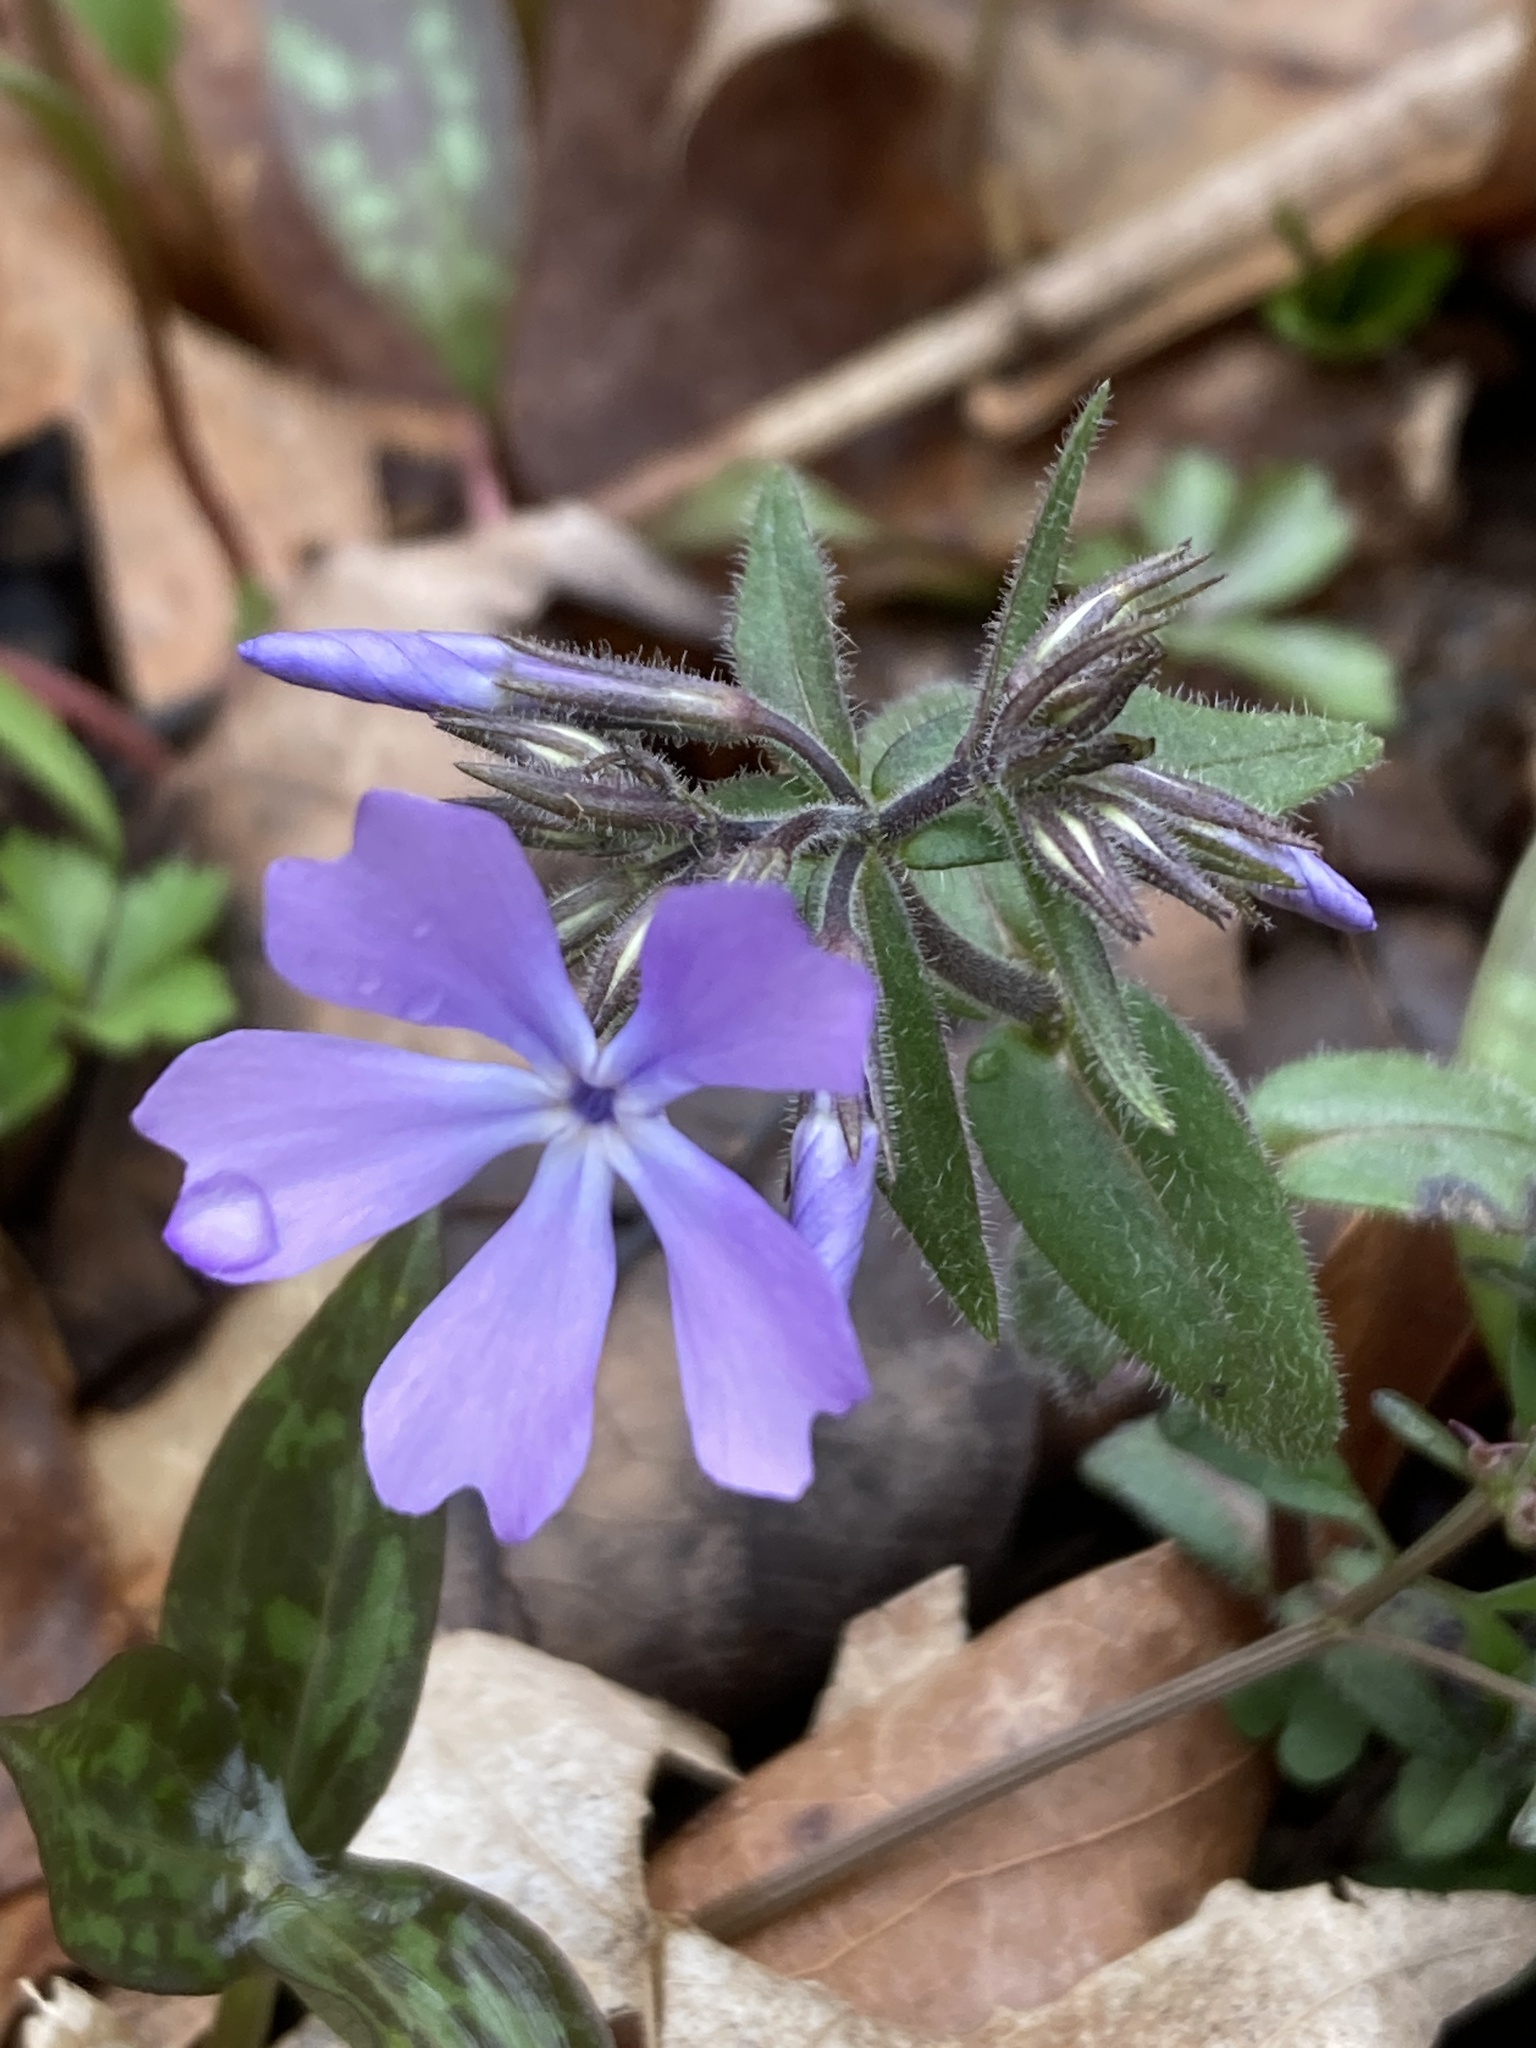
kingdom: Plantae
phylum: Tracheophyta
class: Magnoliopsida
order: Ericales
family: Polemoniaceae
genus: Phlox
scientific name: Phlox divaricata
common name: Blue phlox
